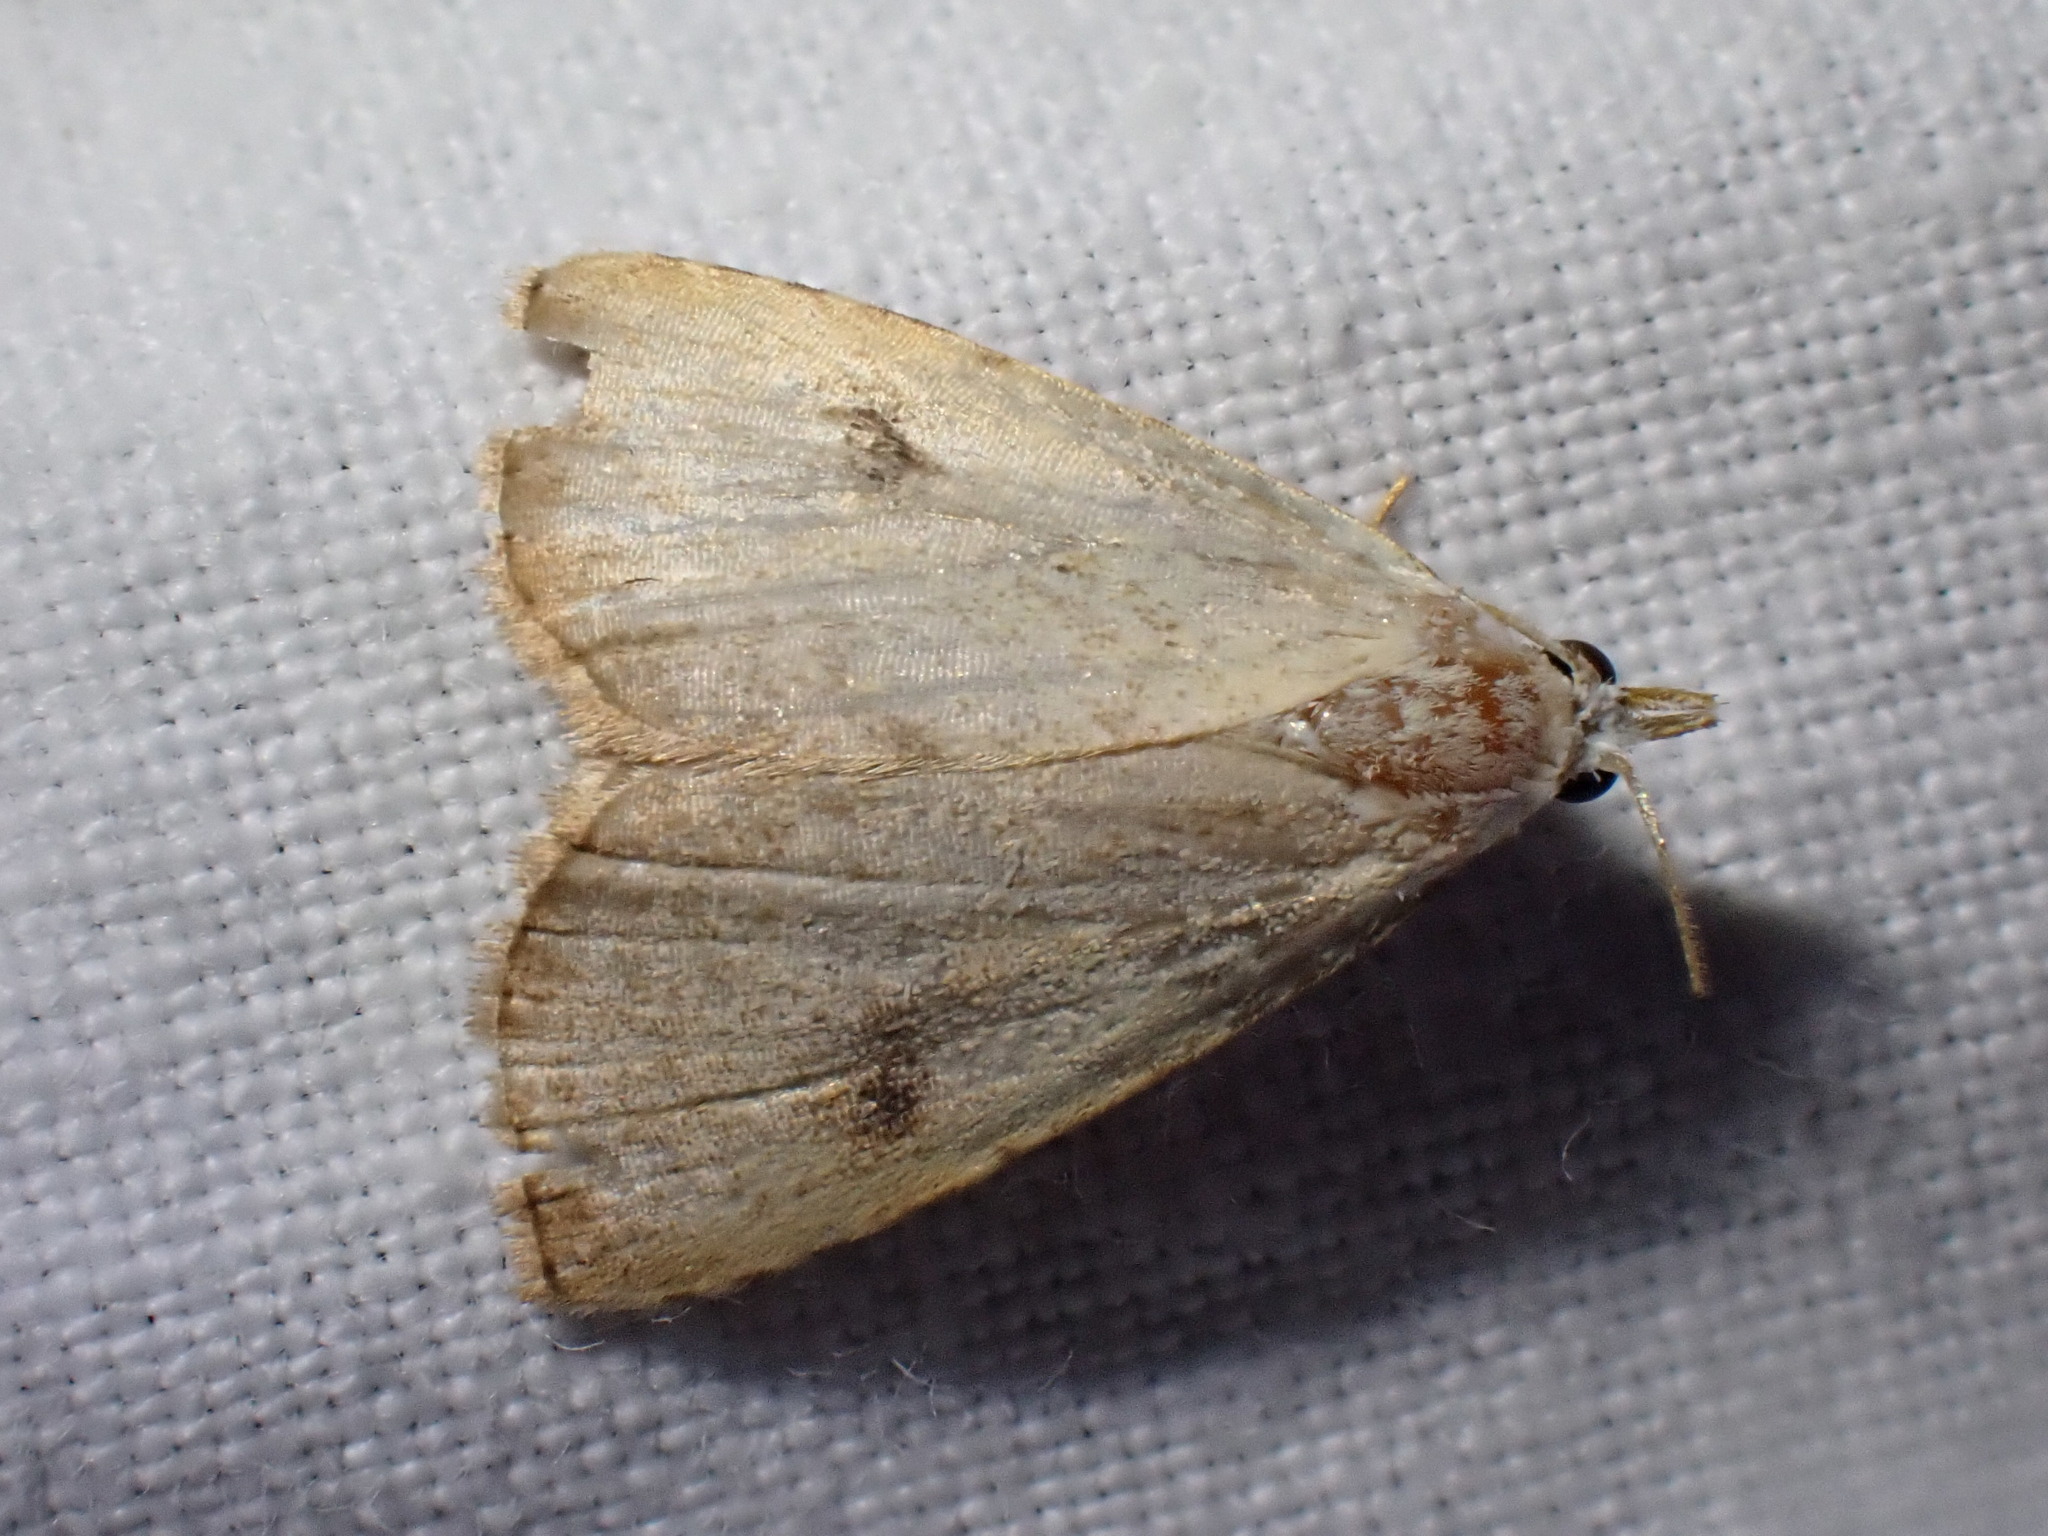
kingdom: Animalia
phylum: Arthropoda
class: Insecta
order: Lepidoptera
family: Erebidae
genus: Rivula
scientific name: Rivula sericealis
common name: Straw dot
